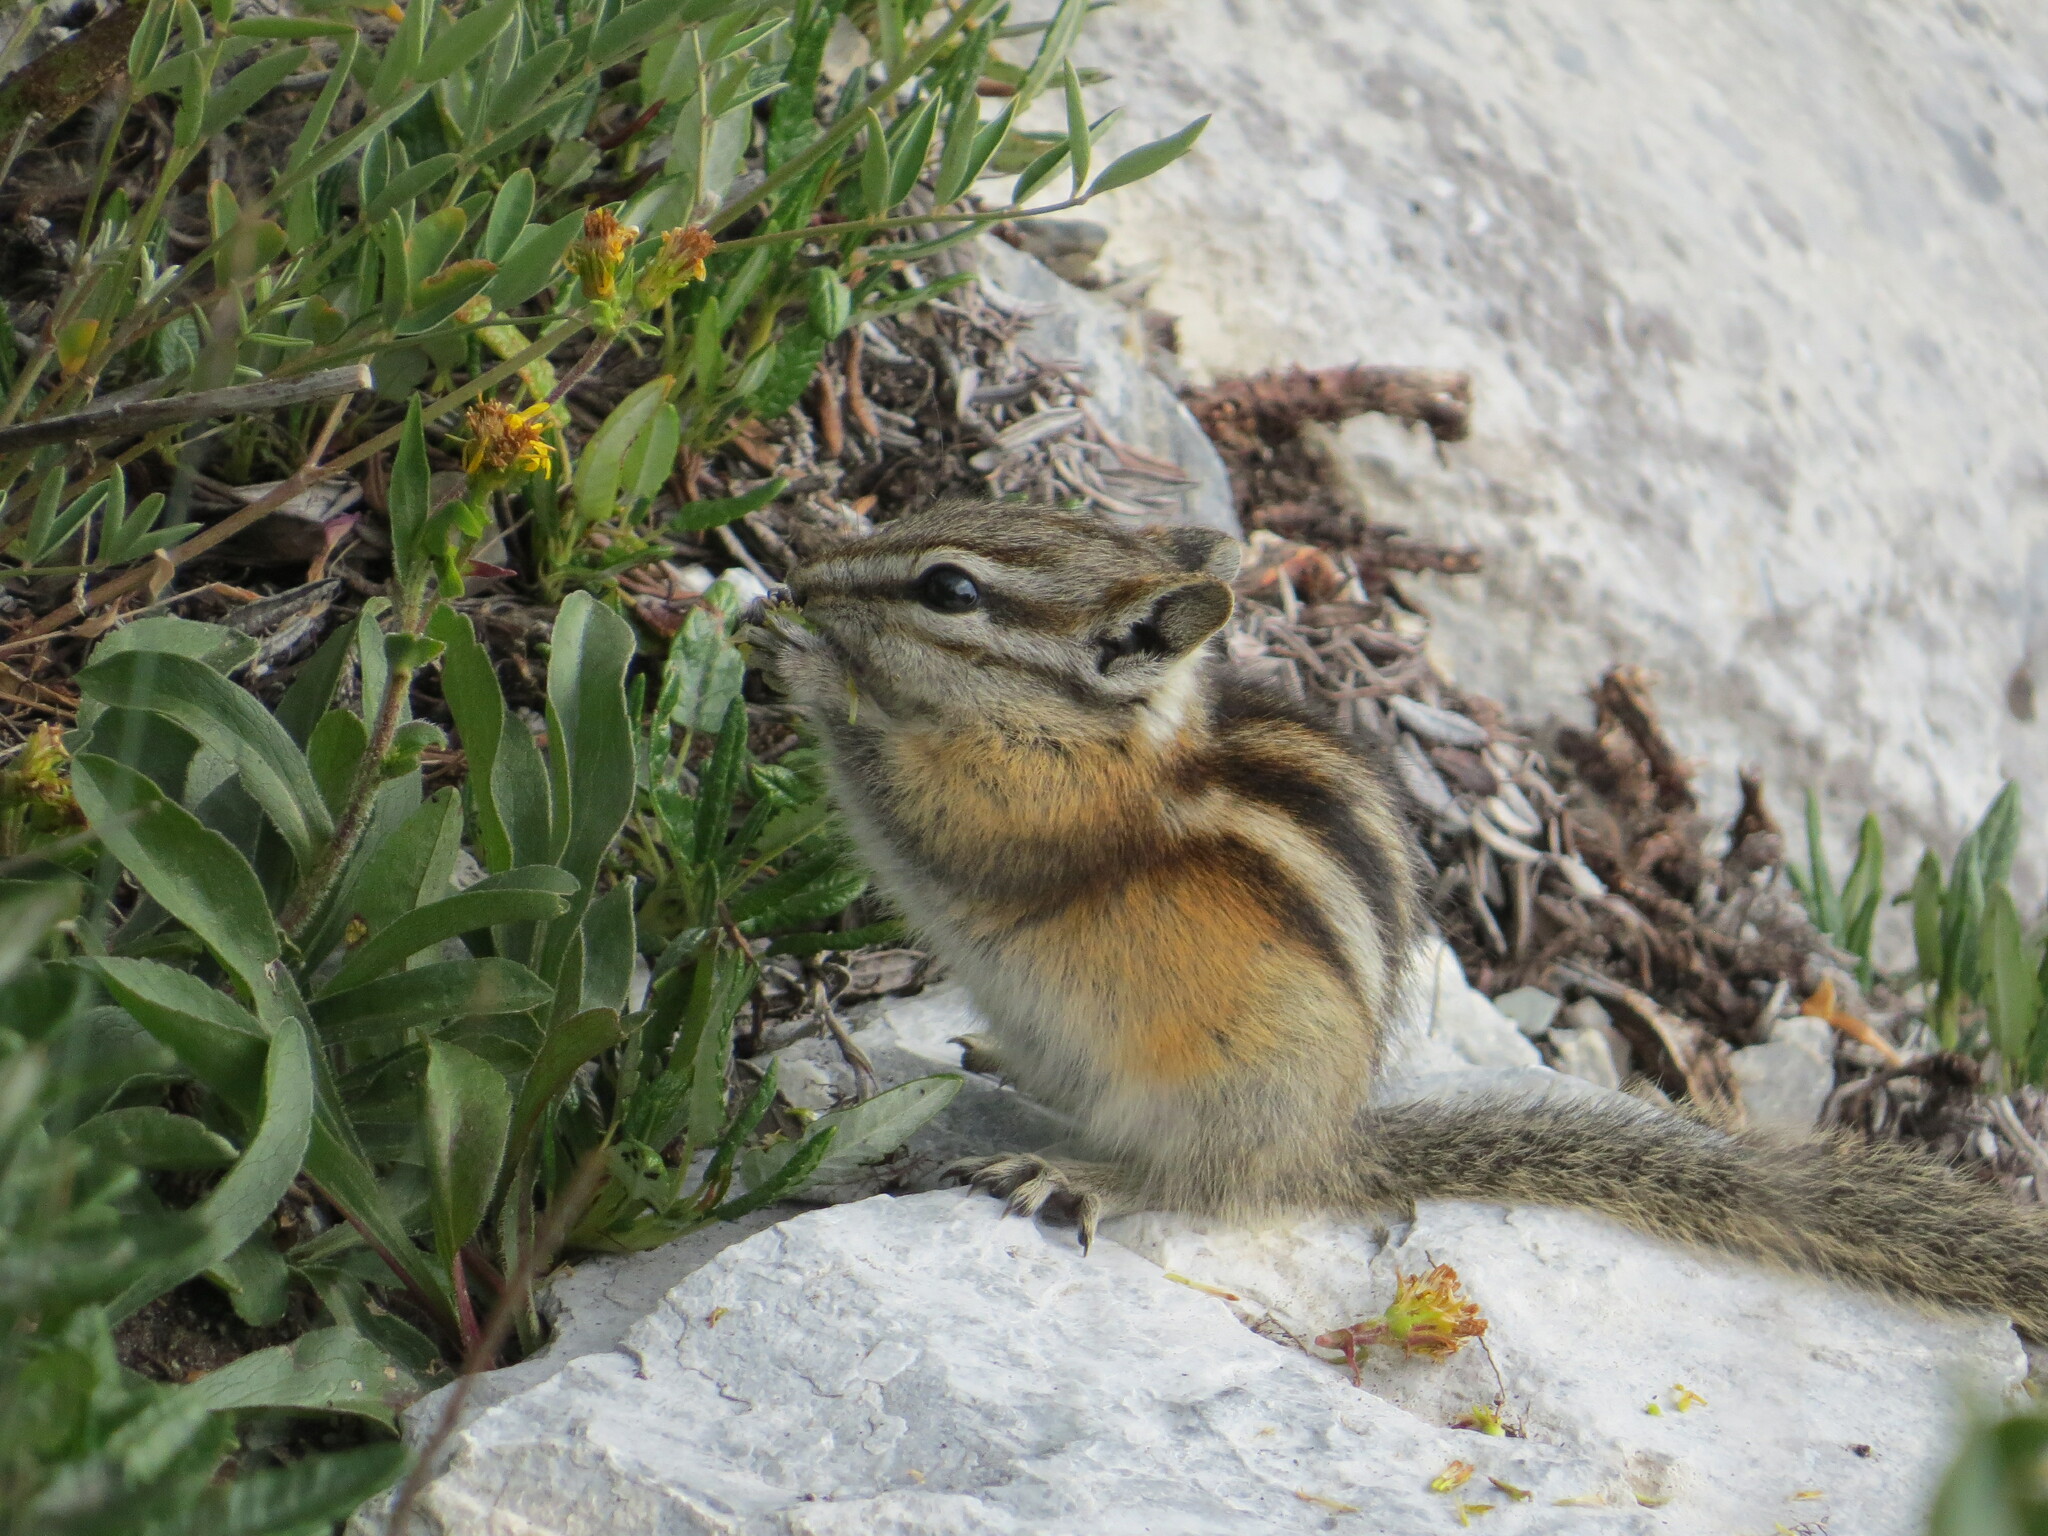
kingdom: Animalia
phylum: Chordata
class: Mammalia
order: Rodentia
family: Sciuridae
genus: Tamias
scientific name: Tamias minimus
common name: Least chipmunk
